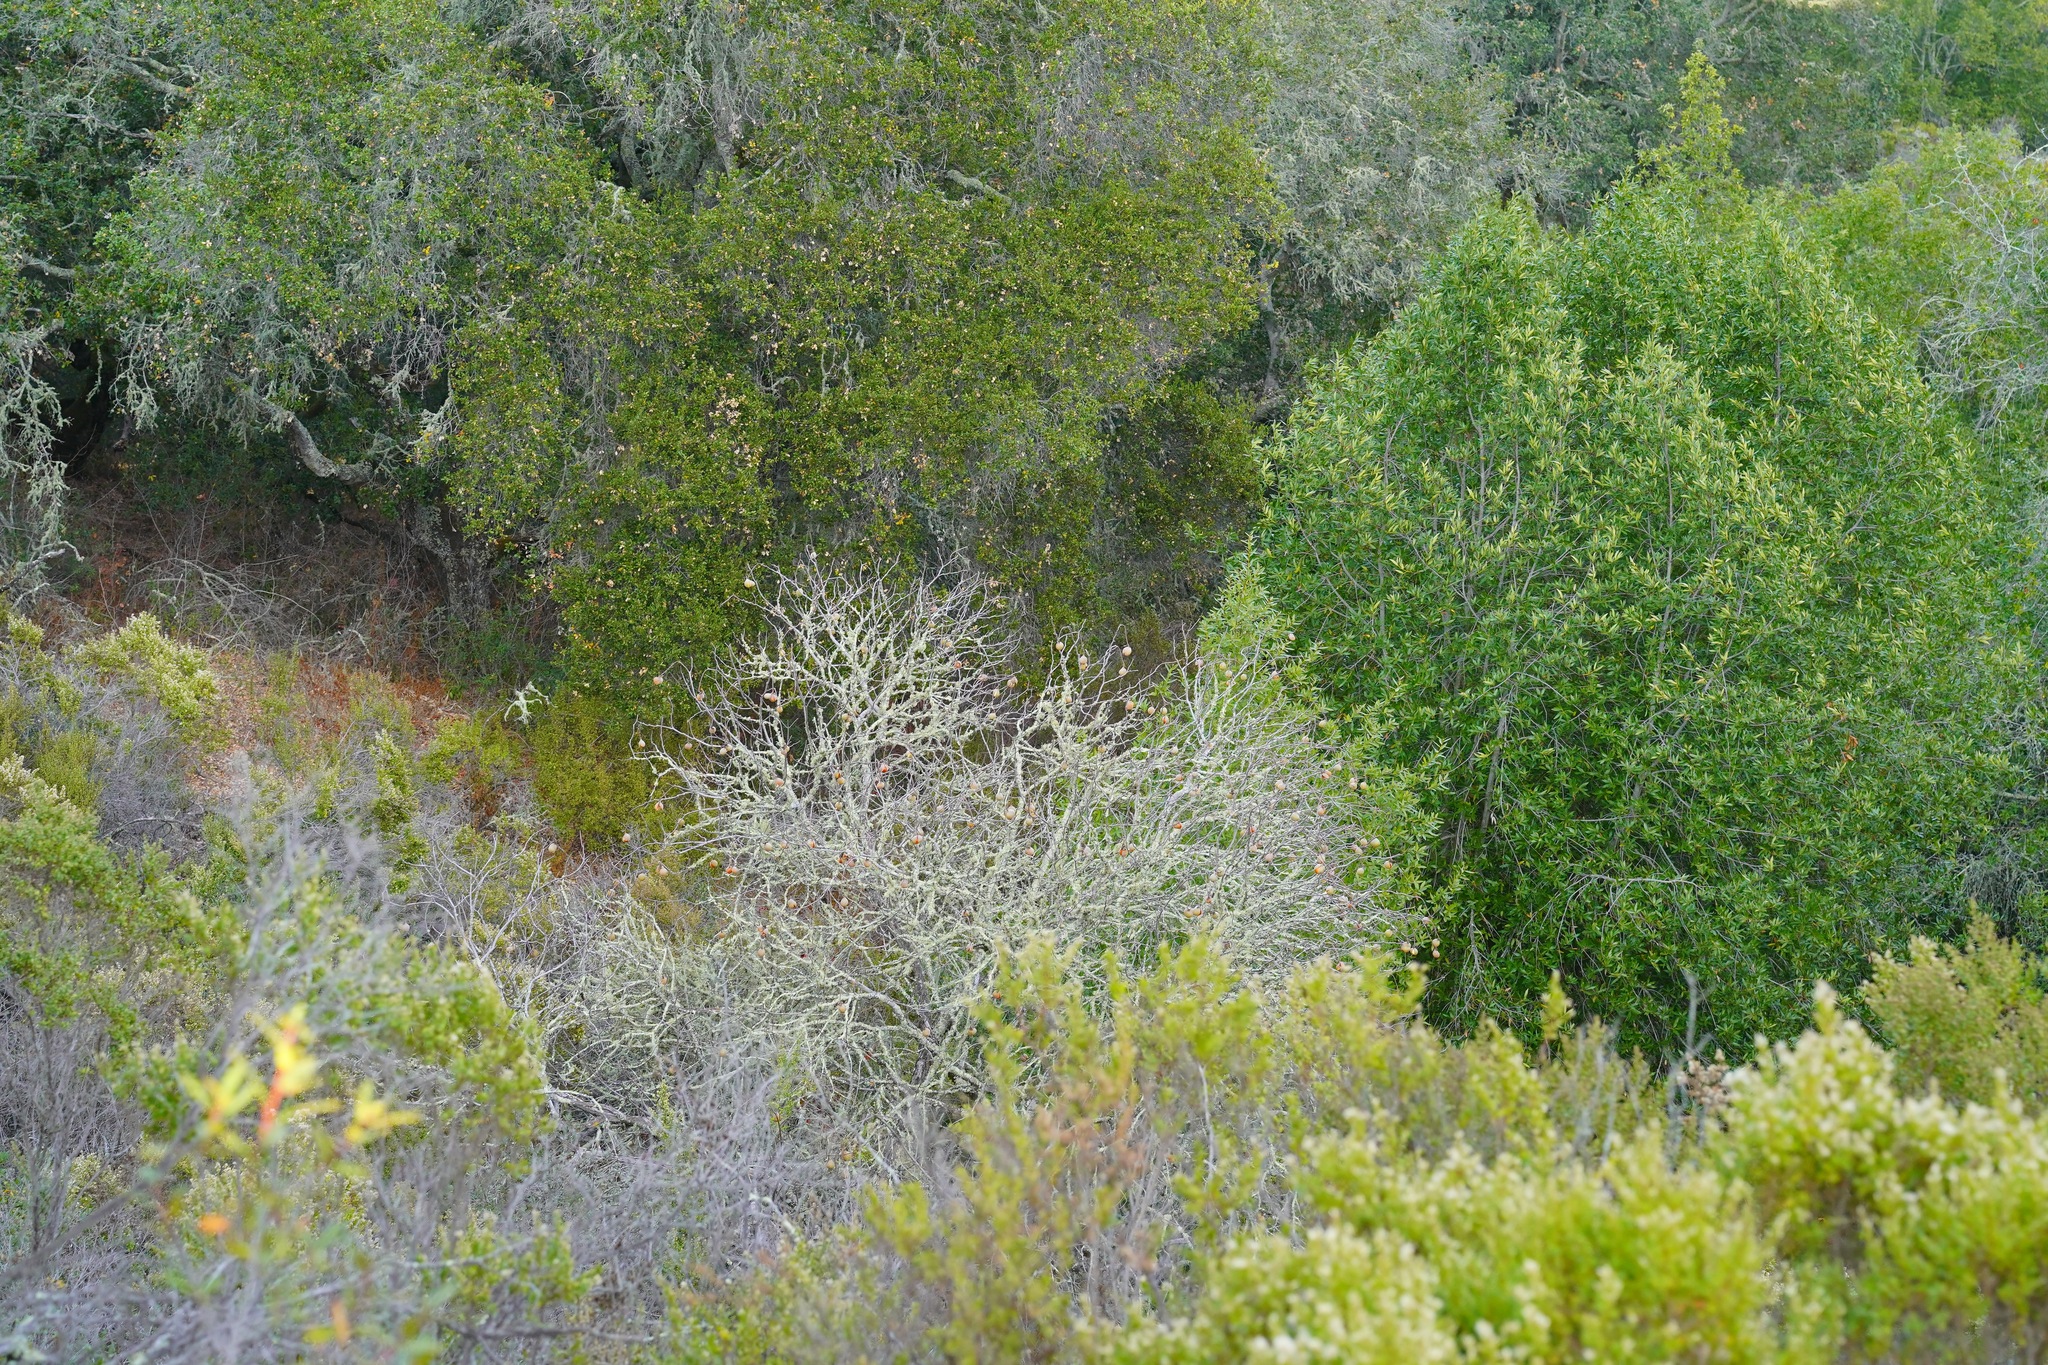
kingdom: Plantae
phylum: Tracheophyta
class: Magnoliopsida
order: Sapindales
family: Sapindaceae
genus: Aesculus
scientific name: Aesculus californica
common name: California buckeye
